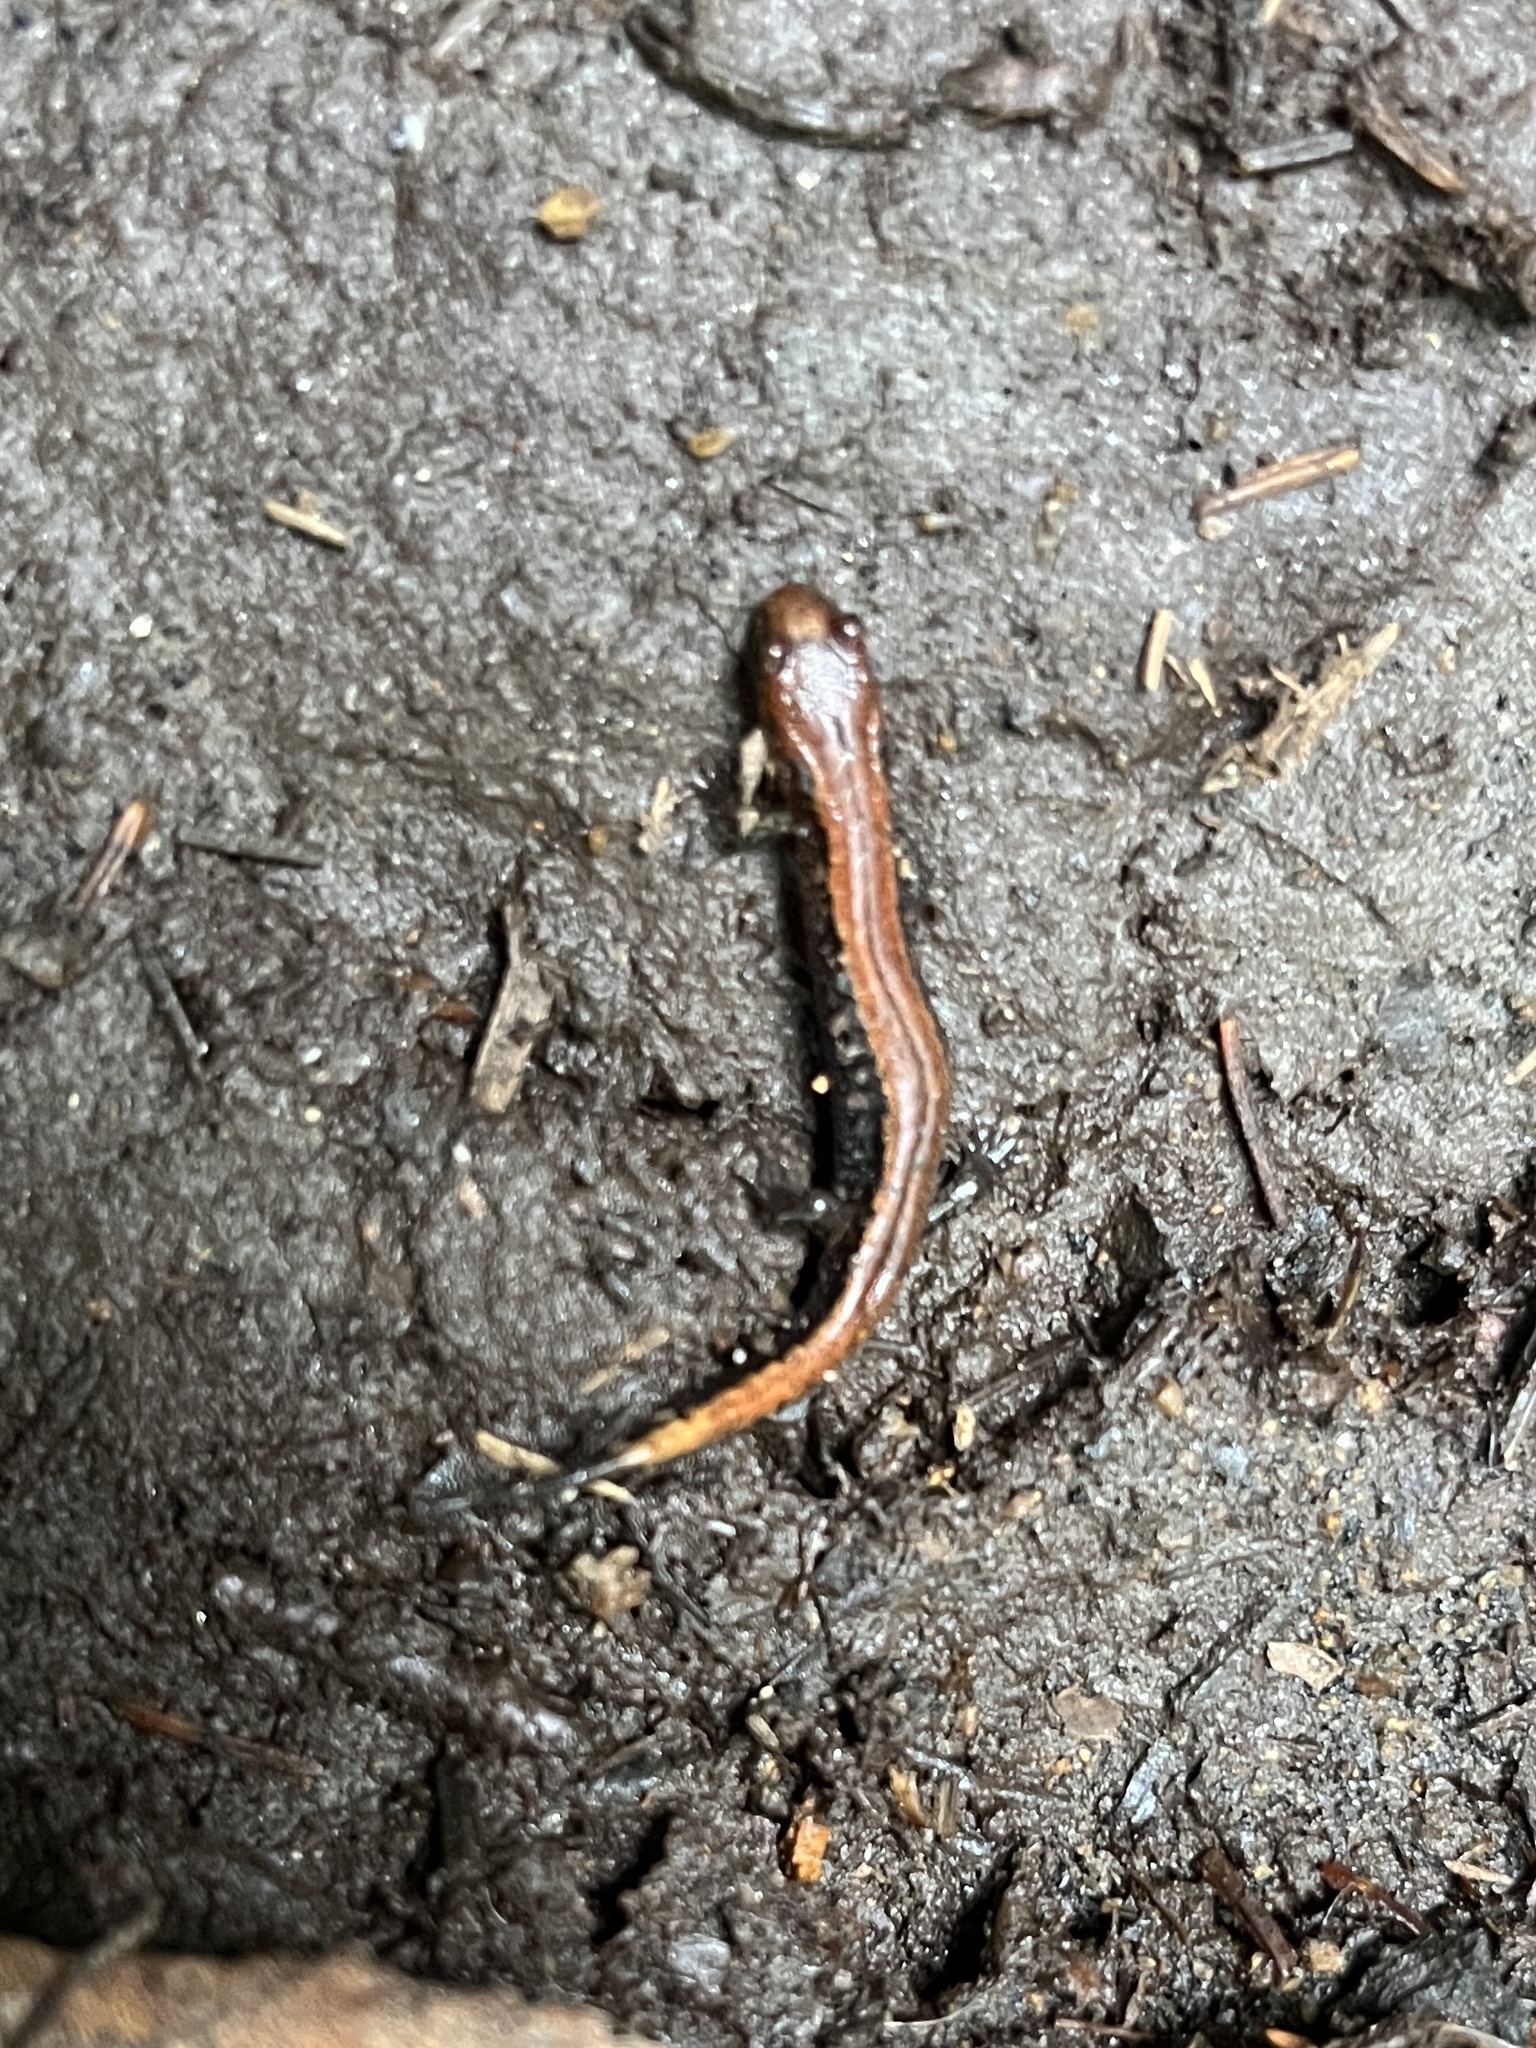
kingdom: Animalia
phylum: Chordata
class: Amphibia
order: Caudata
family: Plethodontidae
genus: Desmognathus
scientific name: Desmognathus orestes
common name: Blue ridge dusky salamander
